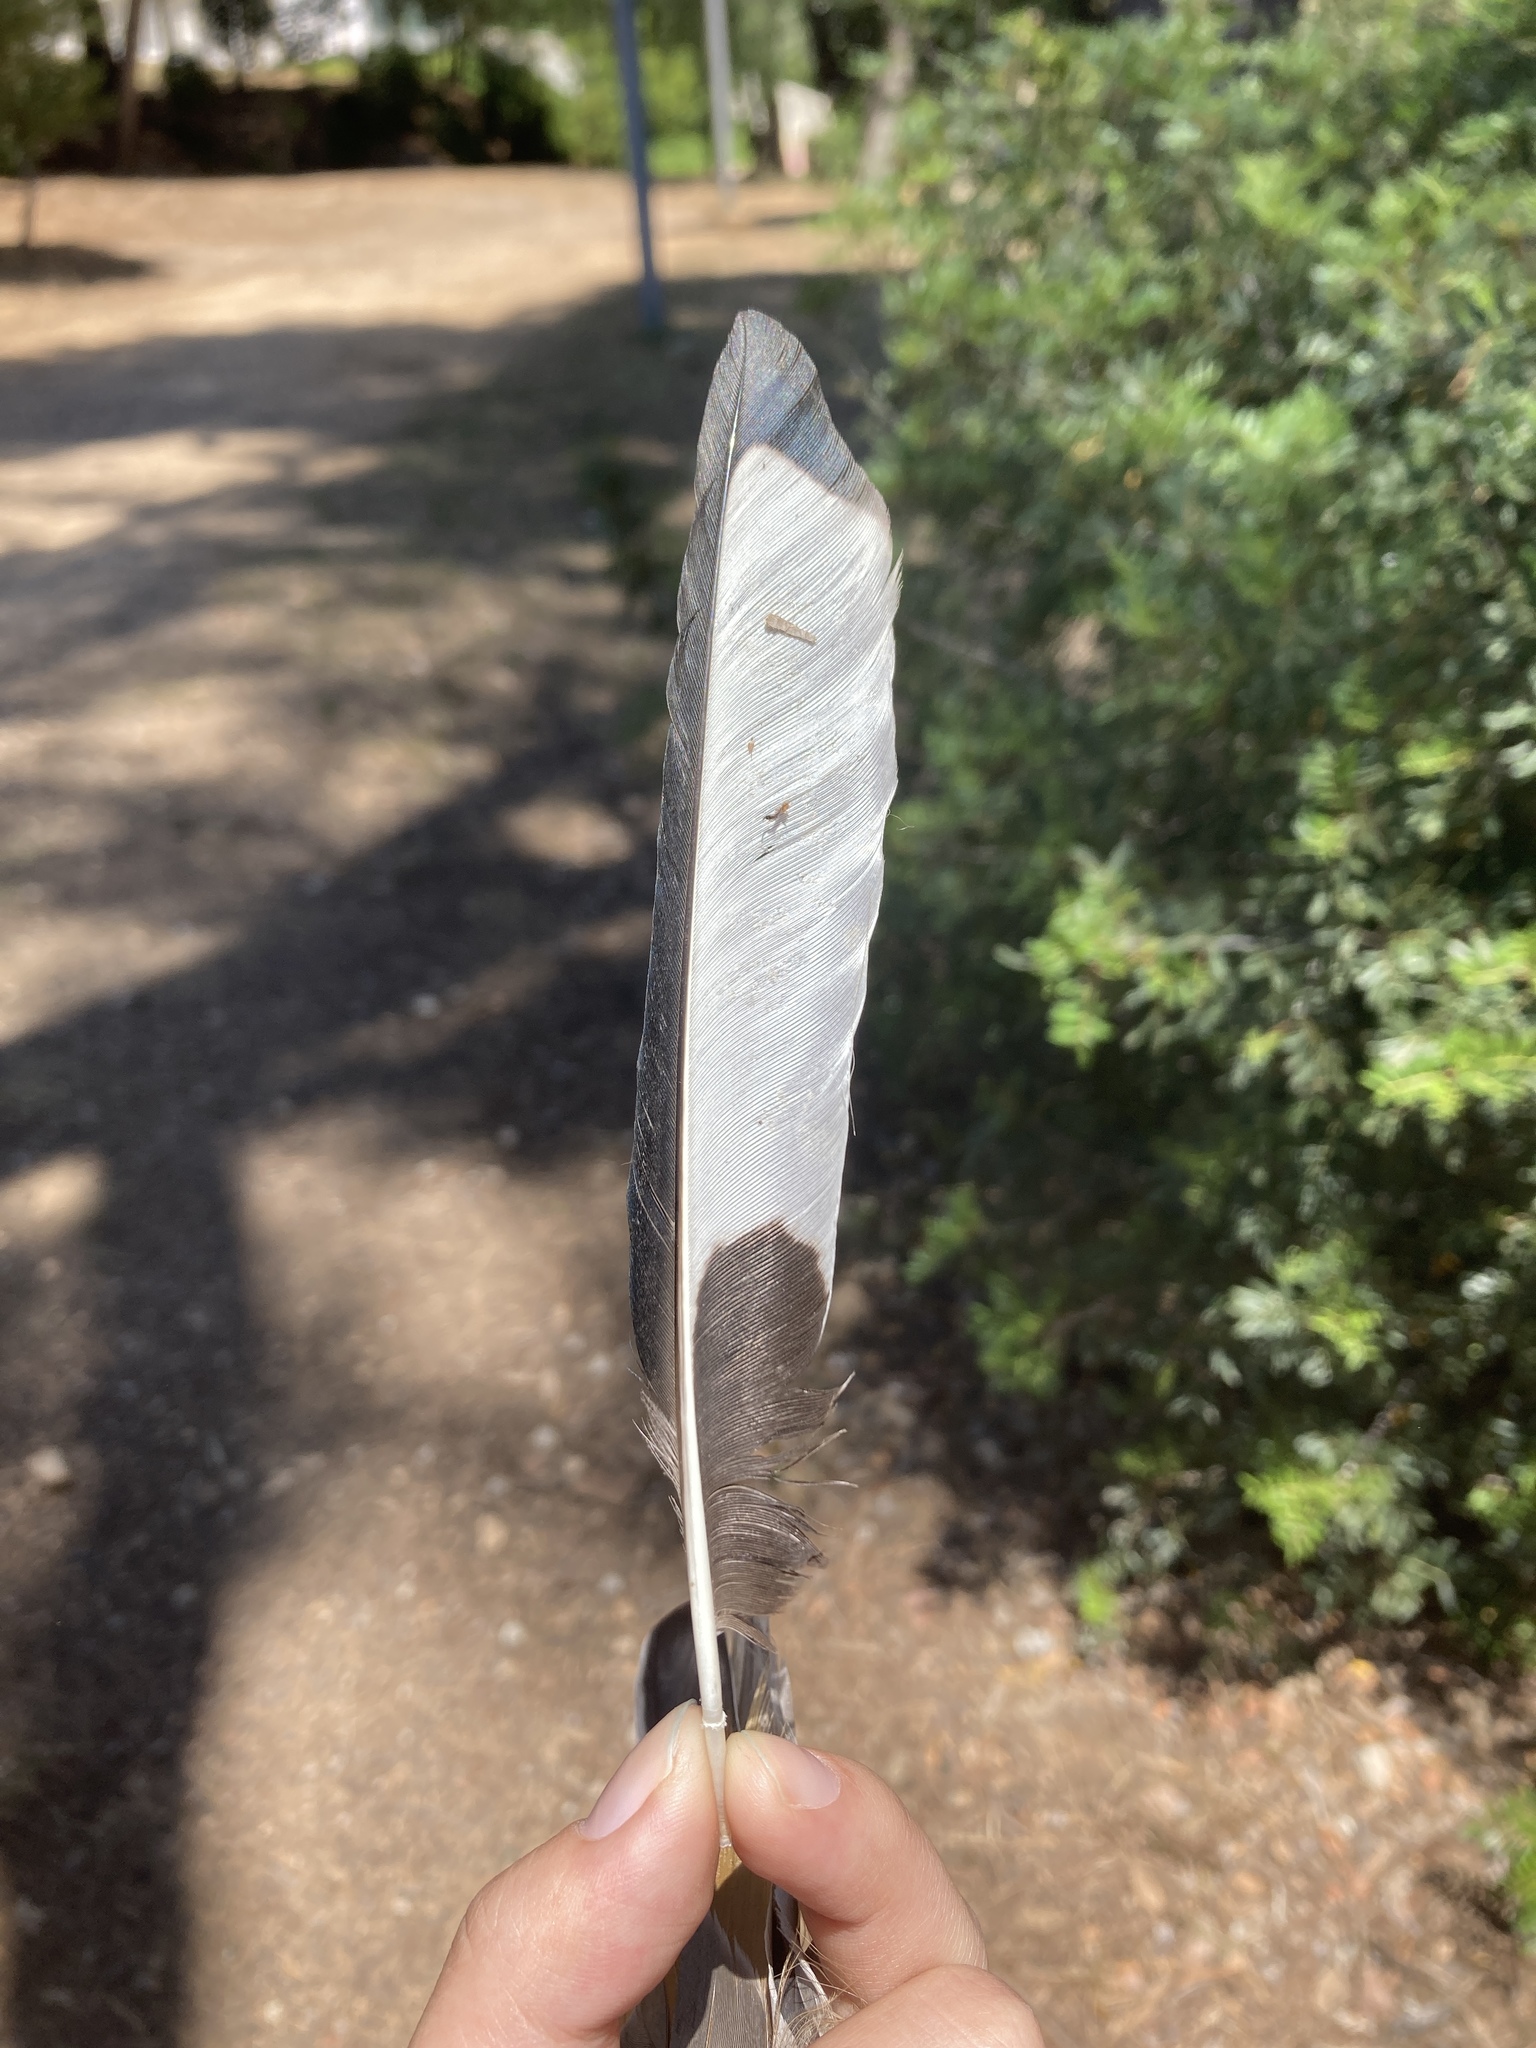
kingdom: Animalia
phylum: Chordata
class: Aves
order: Passeriformes
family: Corvidae
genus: Pica
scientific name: Pica pica
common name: Eurasian magpie
